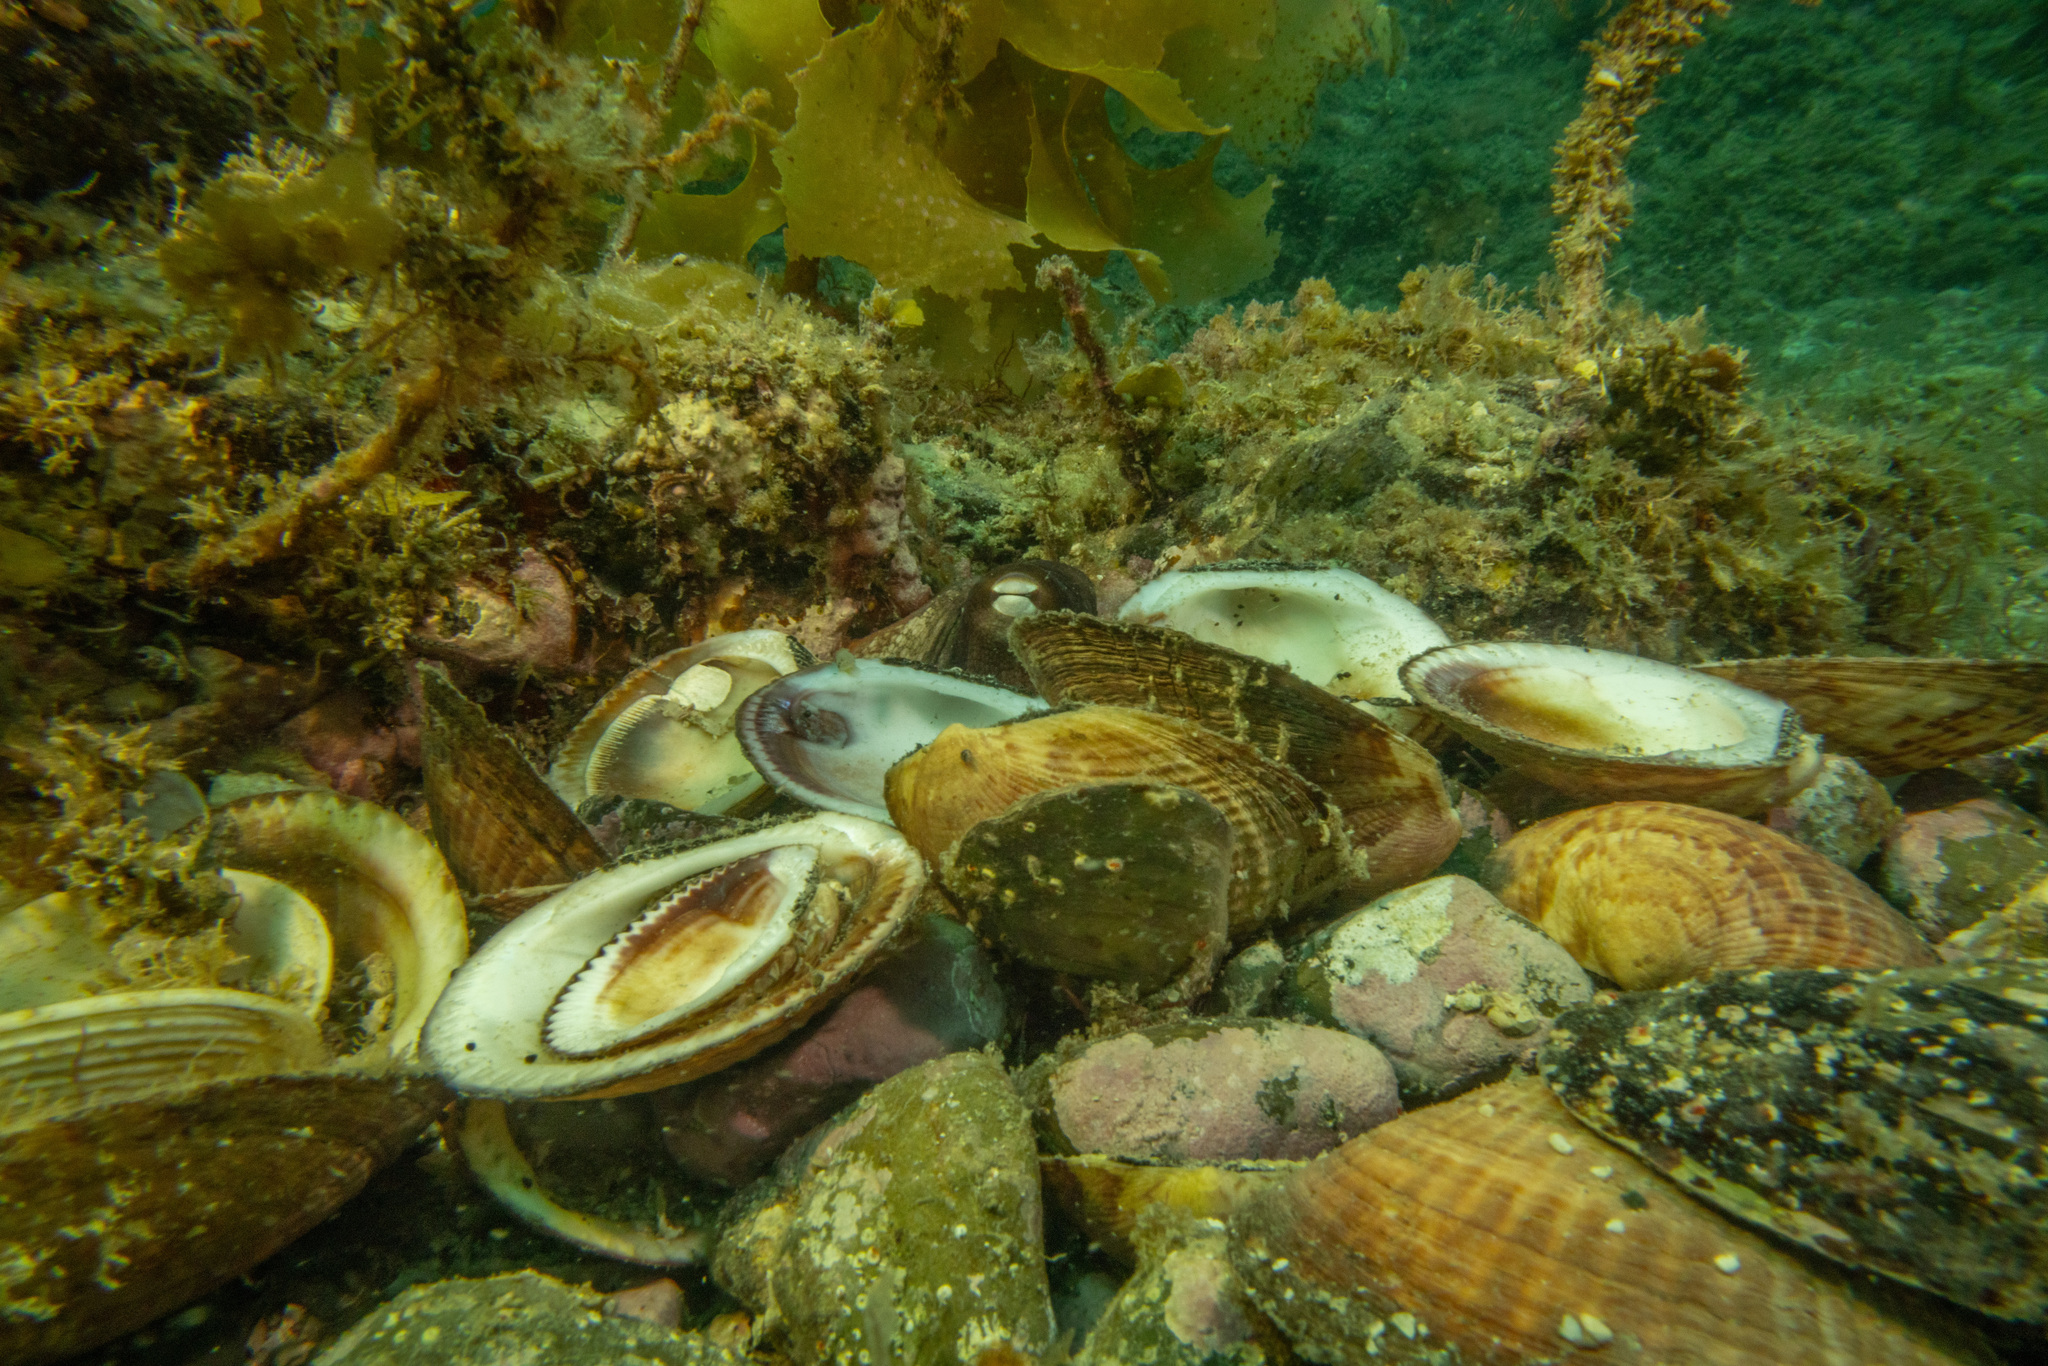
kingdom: Animalia
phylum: Mollusca
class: Cephalopoda
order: Octopoda
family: Octopodidae
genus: Octopus
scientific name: Octopus tetricus
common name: Sydney octopus
